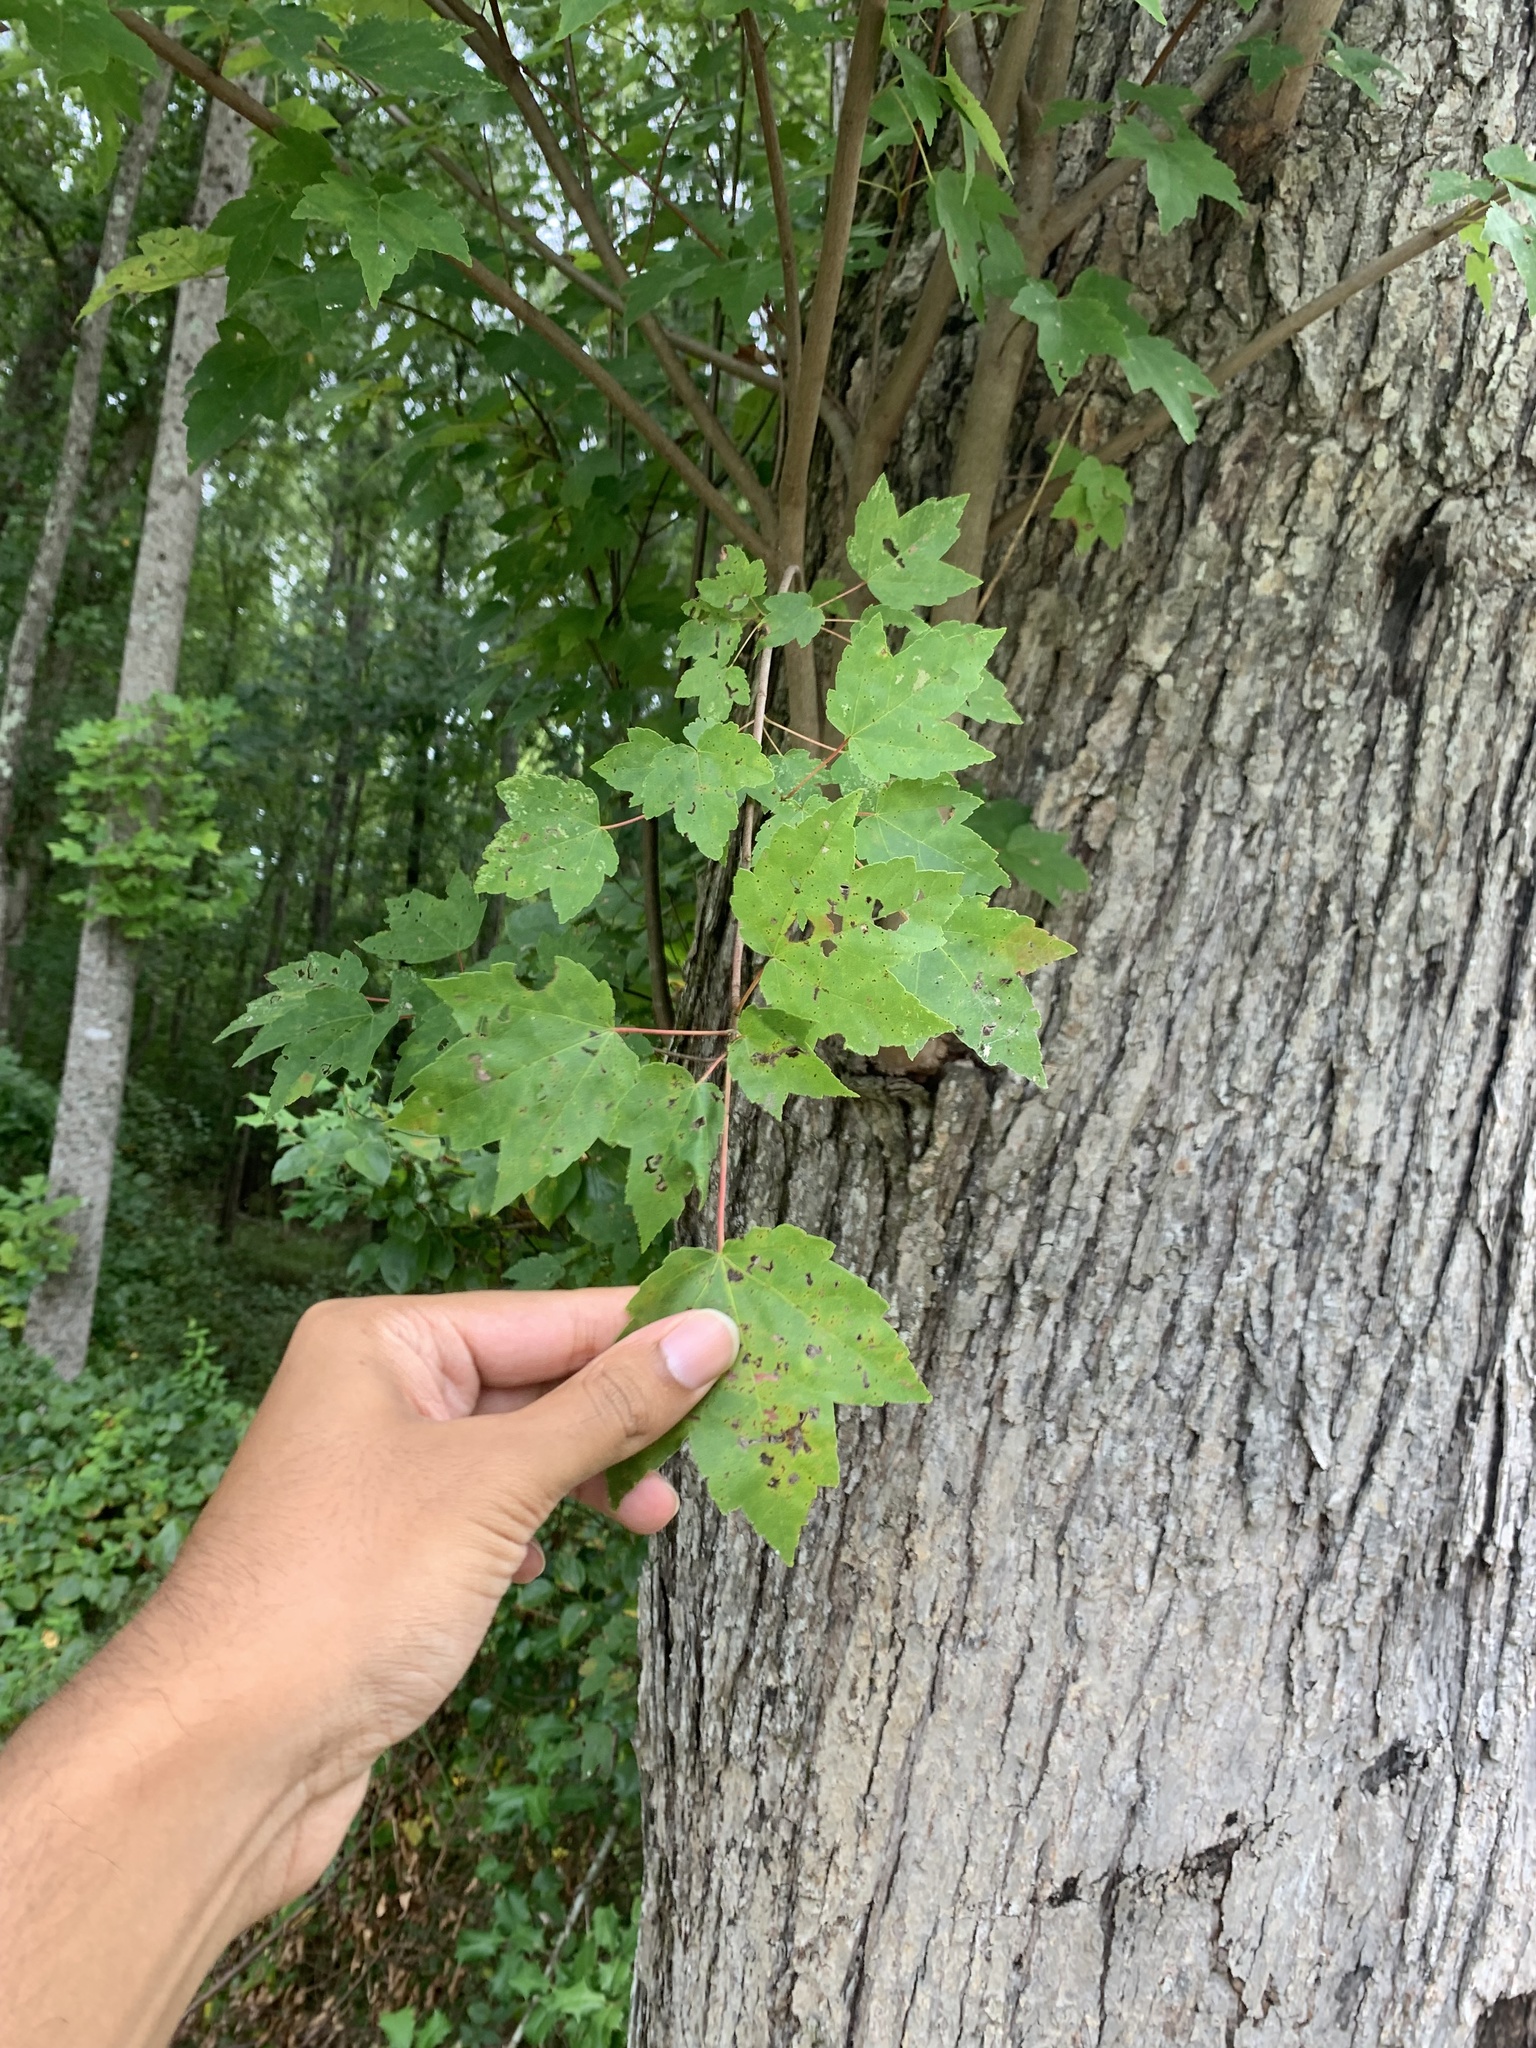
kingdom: Plantae
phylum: Tracheophyta
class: Magnoliopsida
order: Sapindales
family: Sapindaceae
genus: Acer
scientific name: Acer rubrum
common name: Red maple
